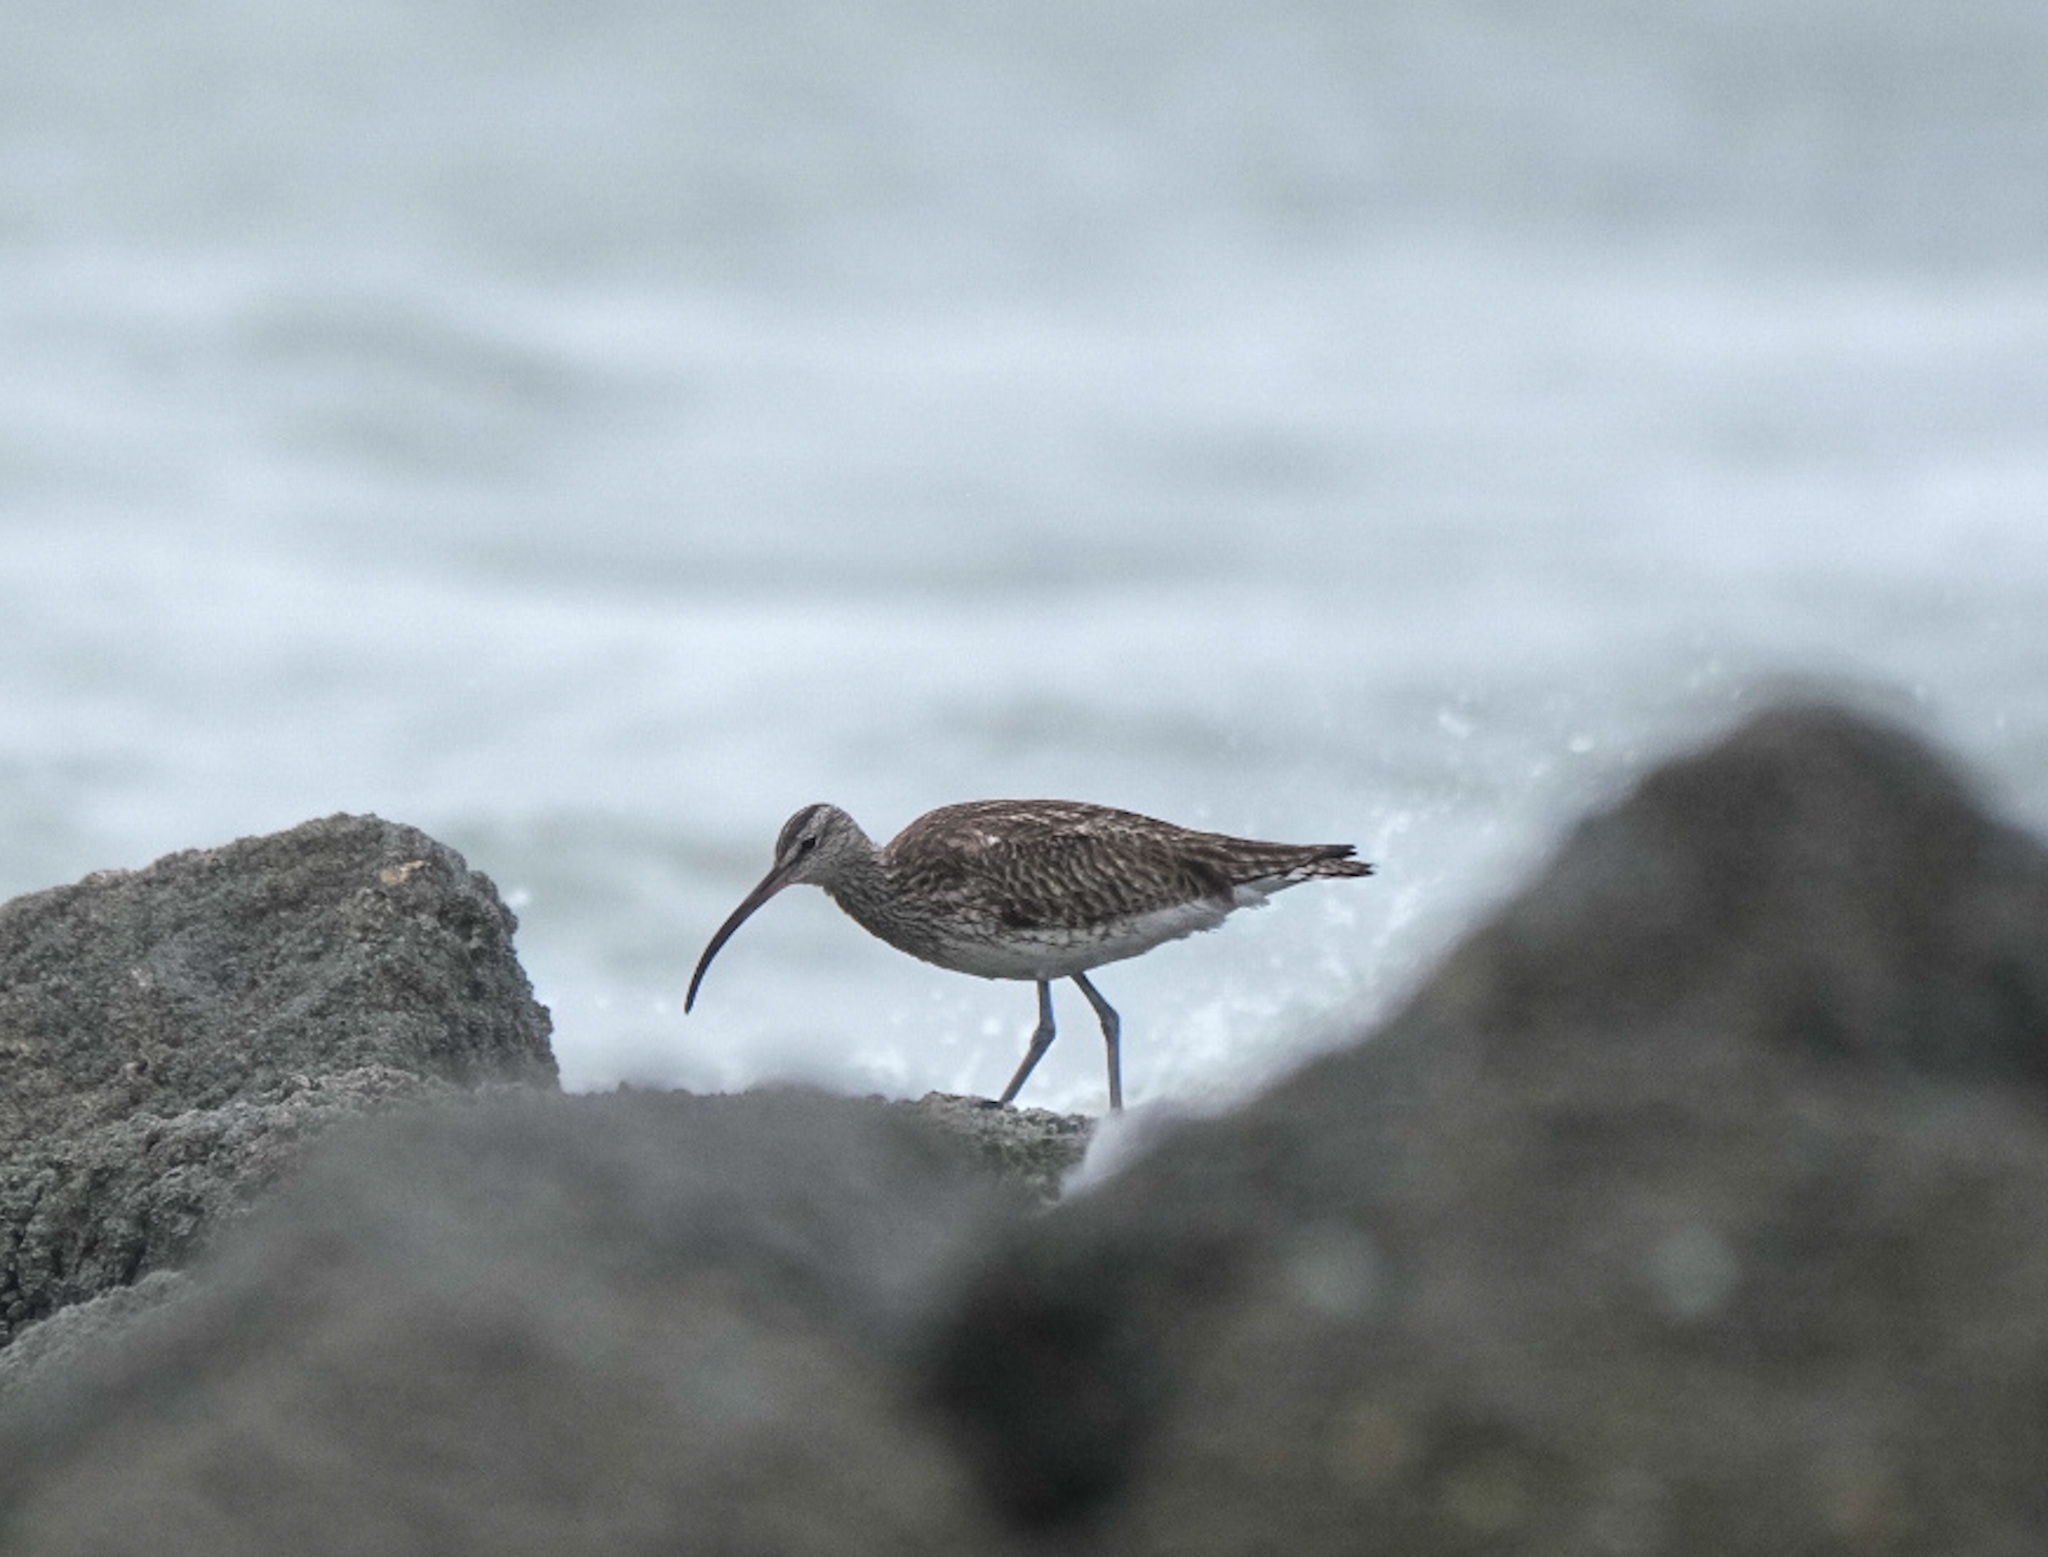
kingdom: Animalia
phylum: Chordata
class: Aves
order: Charadriiformes
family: Scolopacidae
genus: Numenius
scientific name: Numenius phaeopus
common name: Whimbrel
